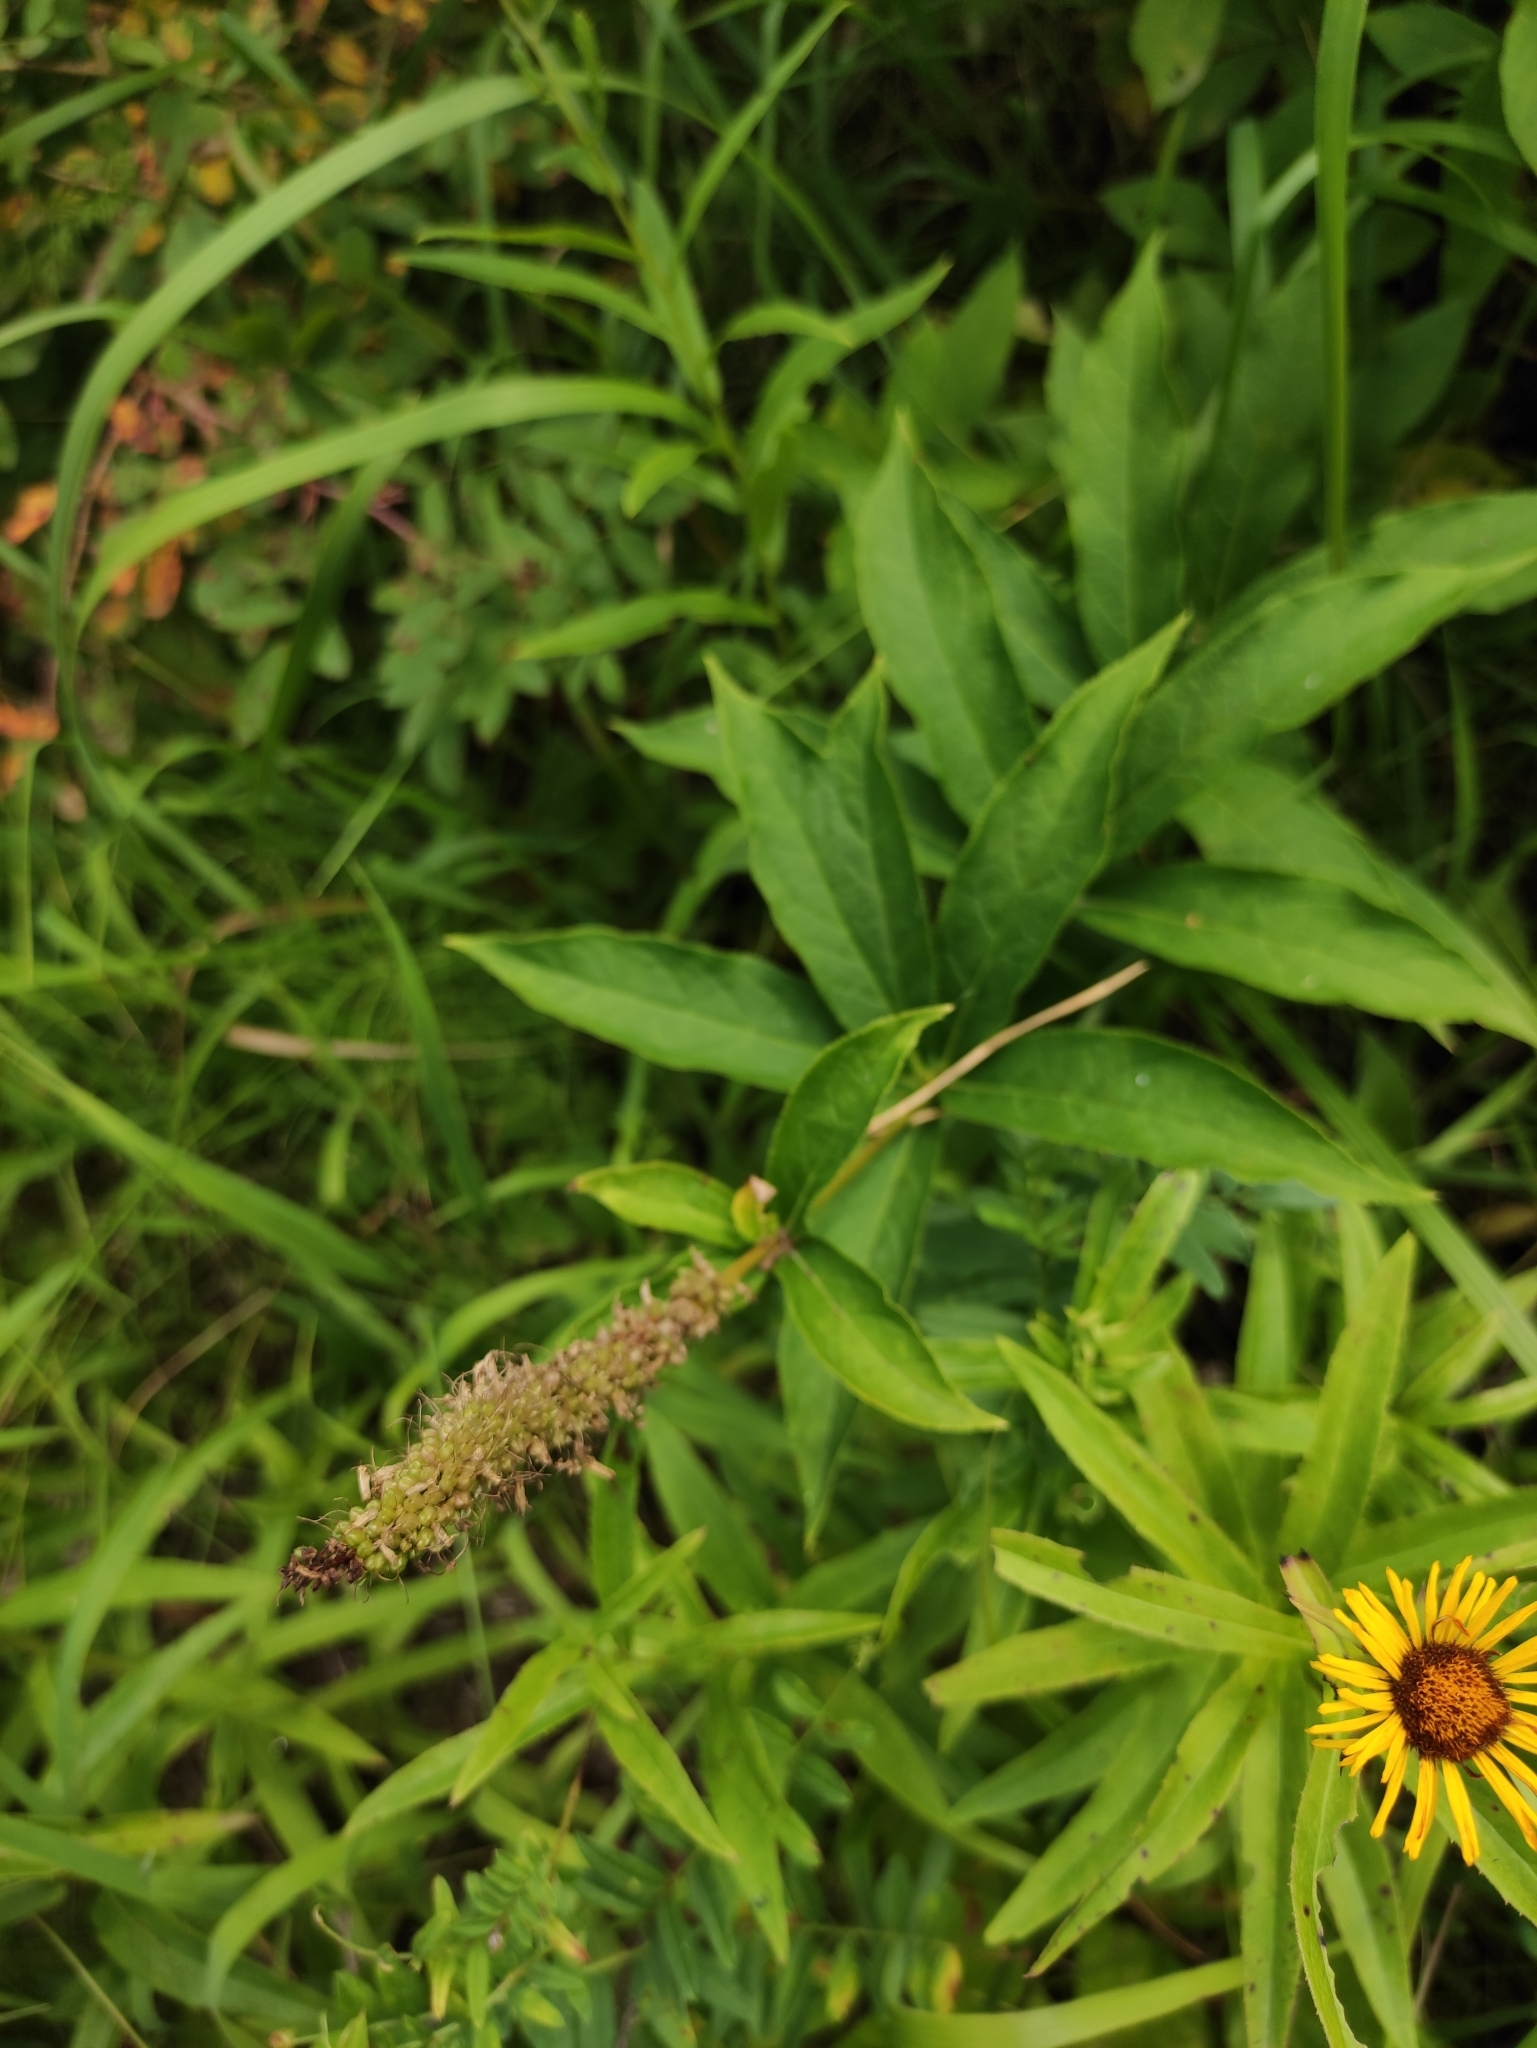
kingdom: Plantae
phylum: Tracheophyta
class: Magnoliopsida
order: Lamiales
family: Plantaginaceae
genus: Veronicastrum
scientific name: Veronicastrum sibiricum
